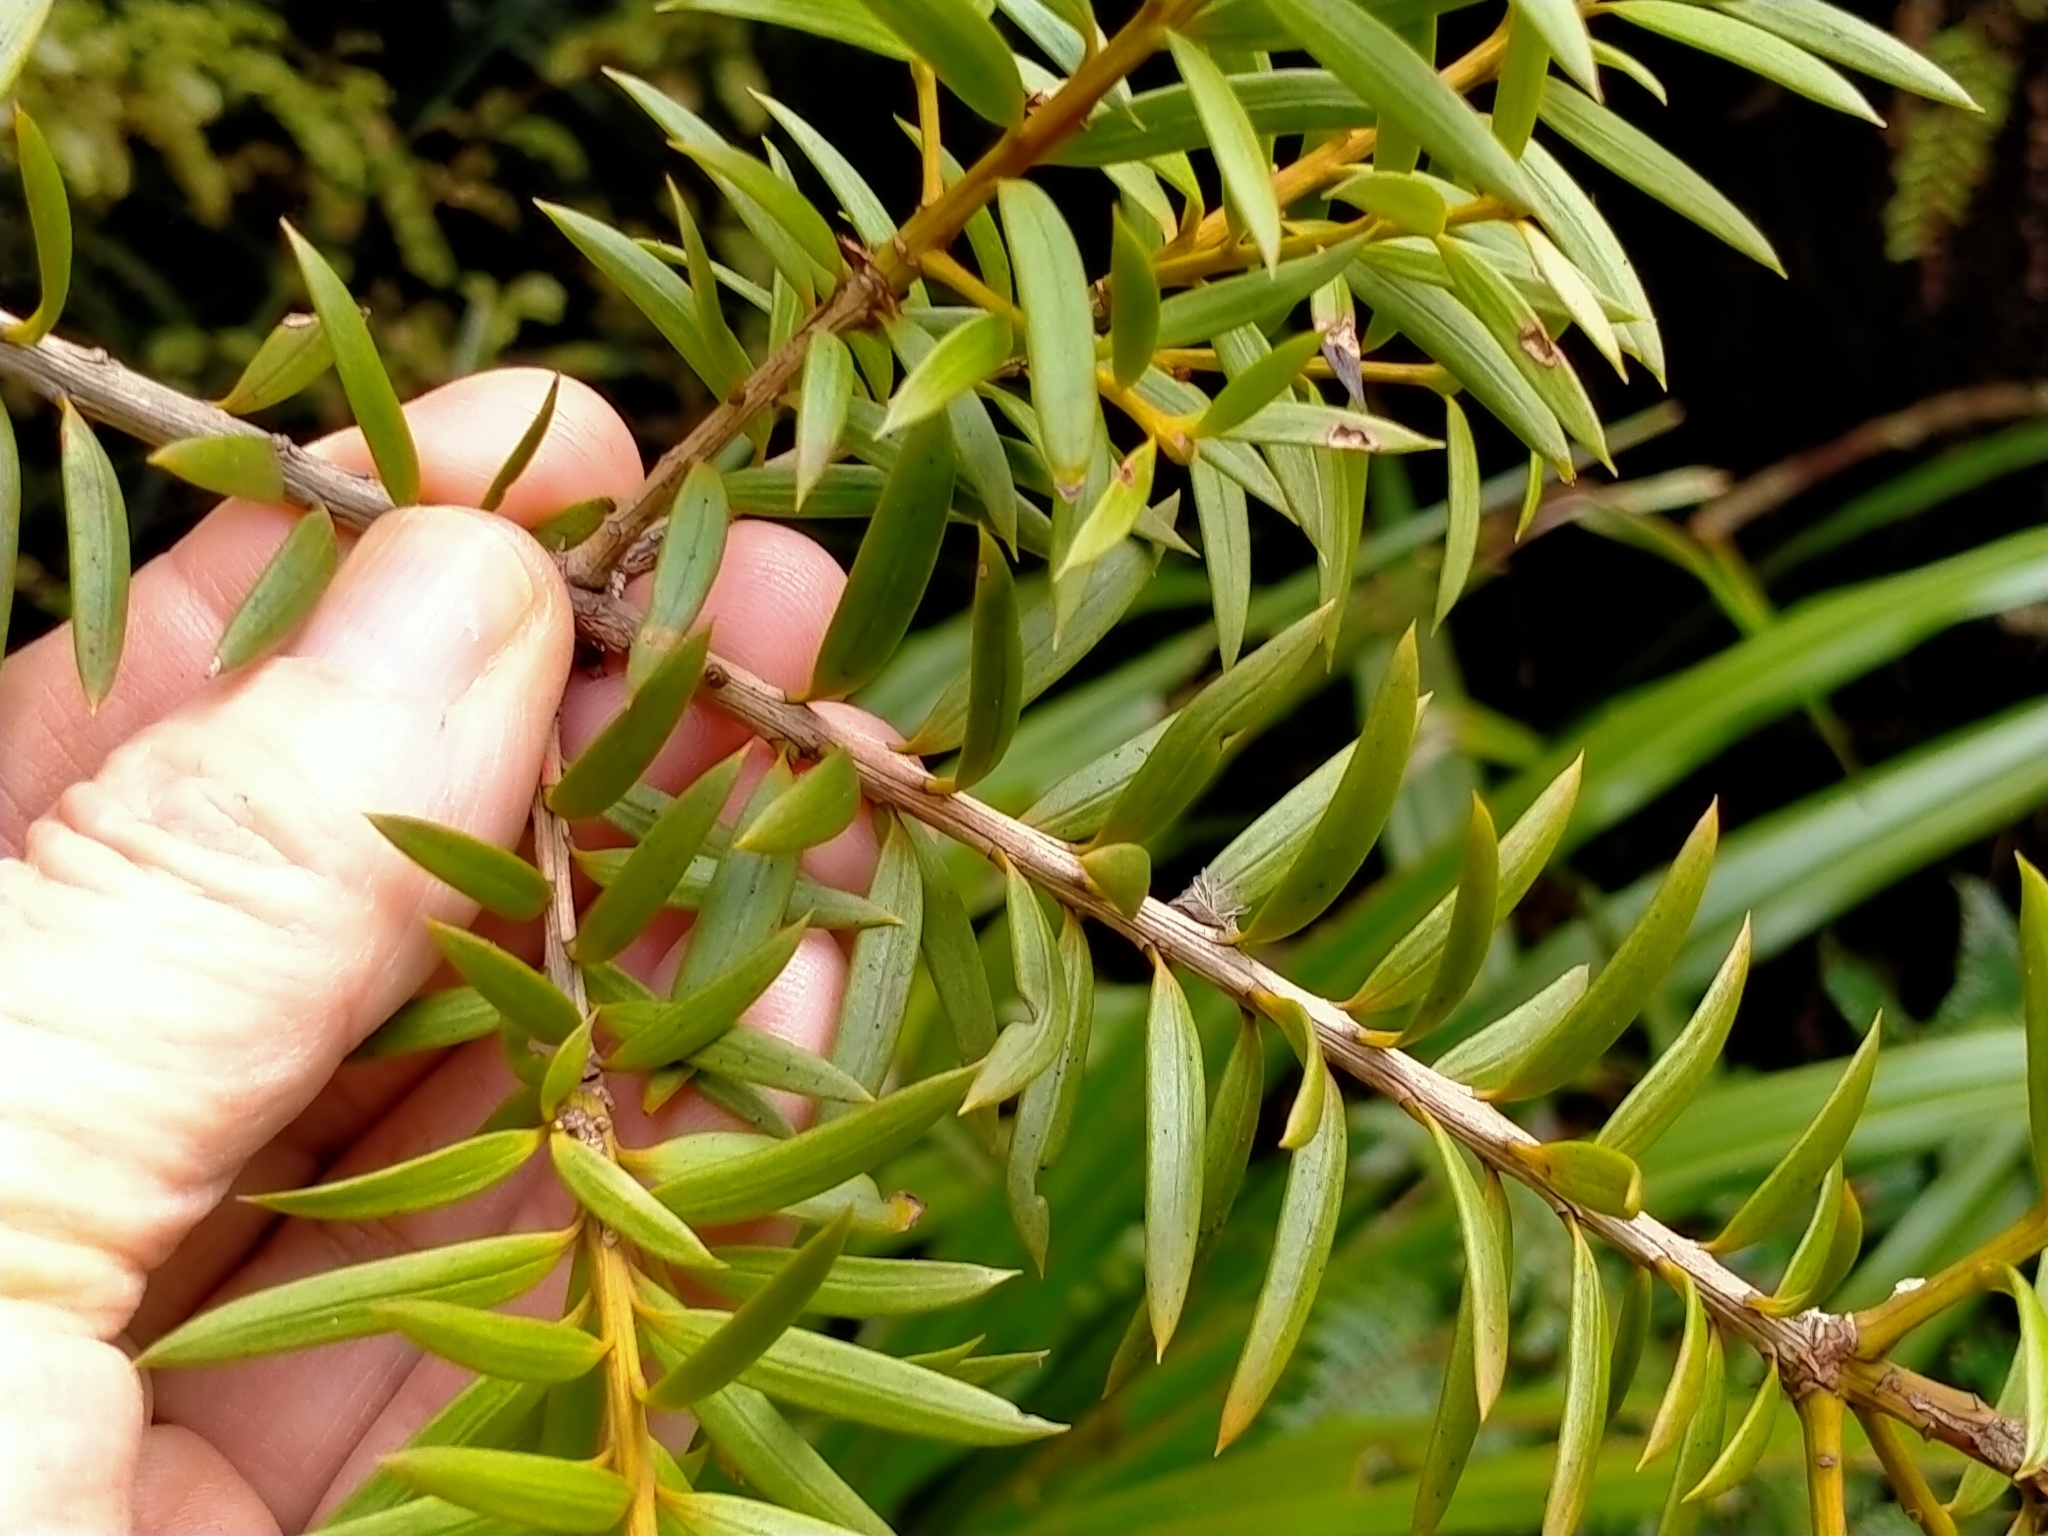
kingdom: Plantae
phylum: Tracheophyta
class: Pinopsida
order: Pinales
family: Podocarpaceae
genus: Podocarpus
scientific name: Podocarpus laetus
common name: Hall's totara
